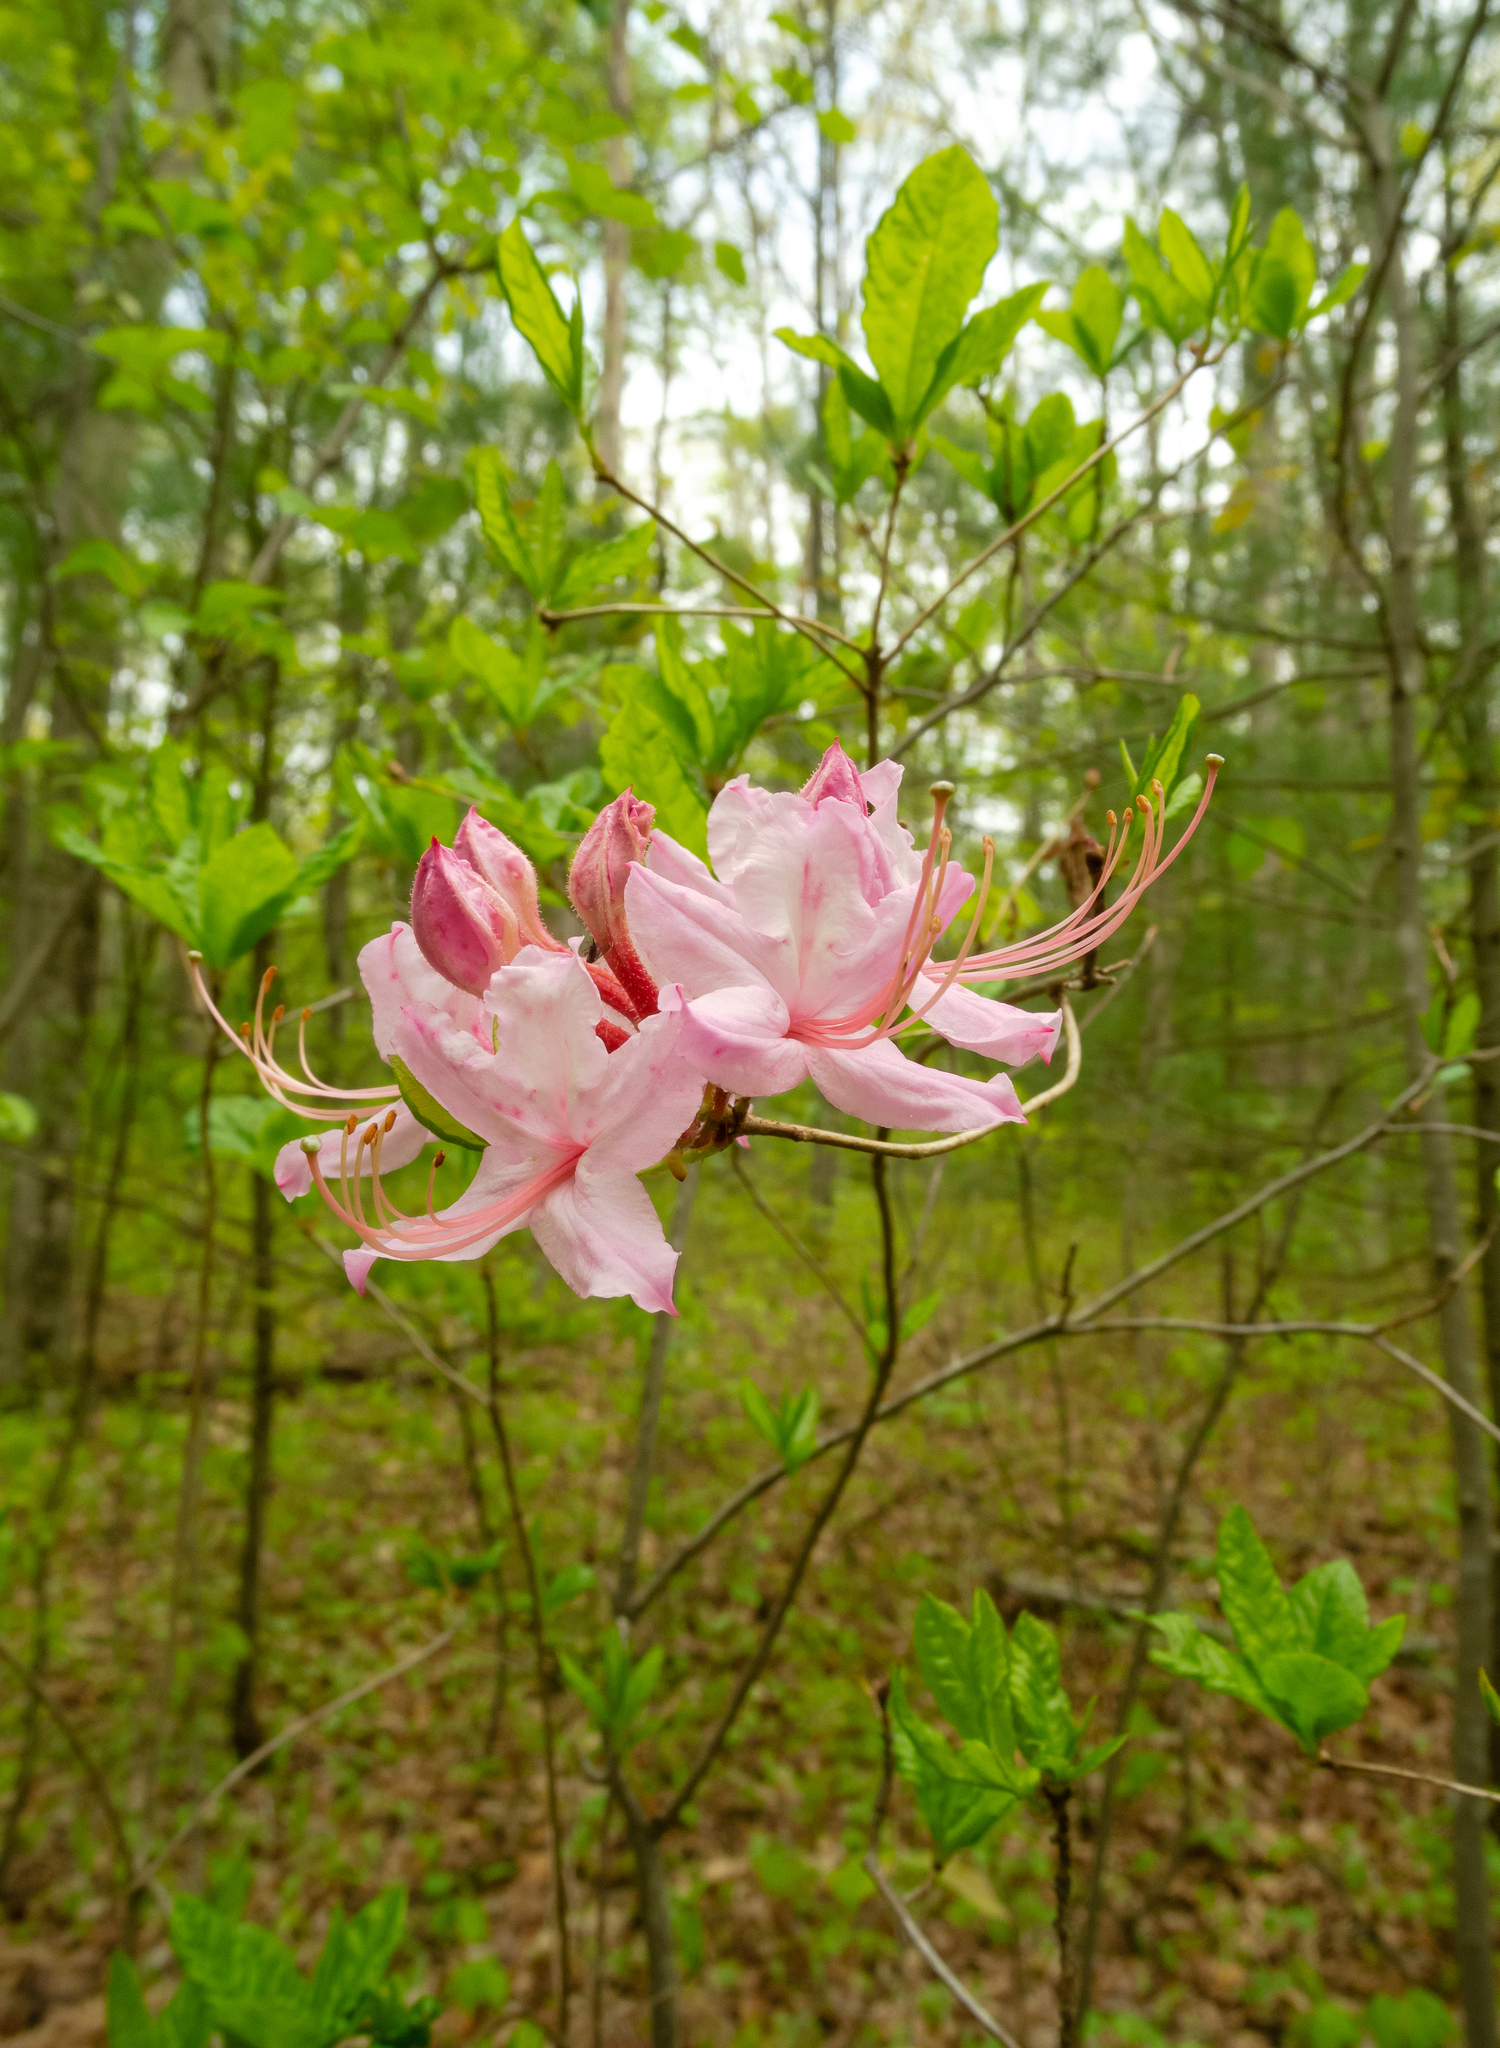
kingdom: Plantae
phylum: Tracheophyta
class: Magnoliopsida
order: Ericales
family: Ericaceae
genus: Rhododendron
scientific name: Rhododendron periclymenoides
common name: Election-pink
